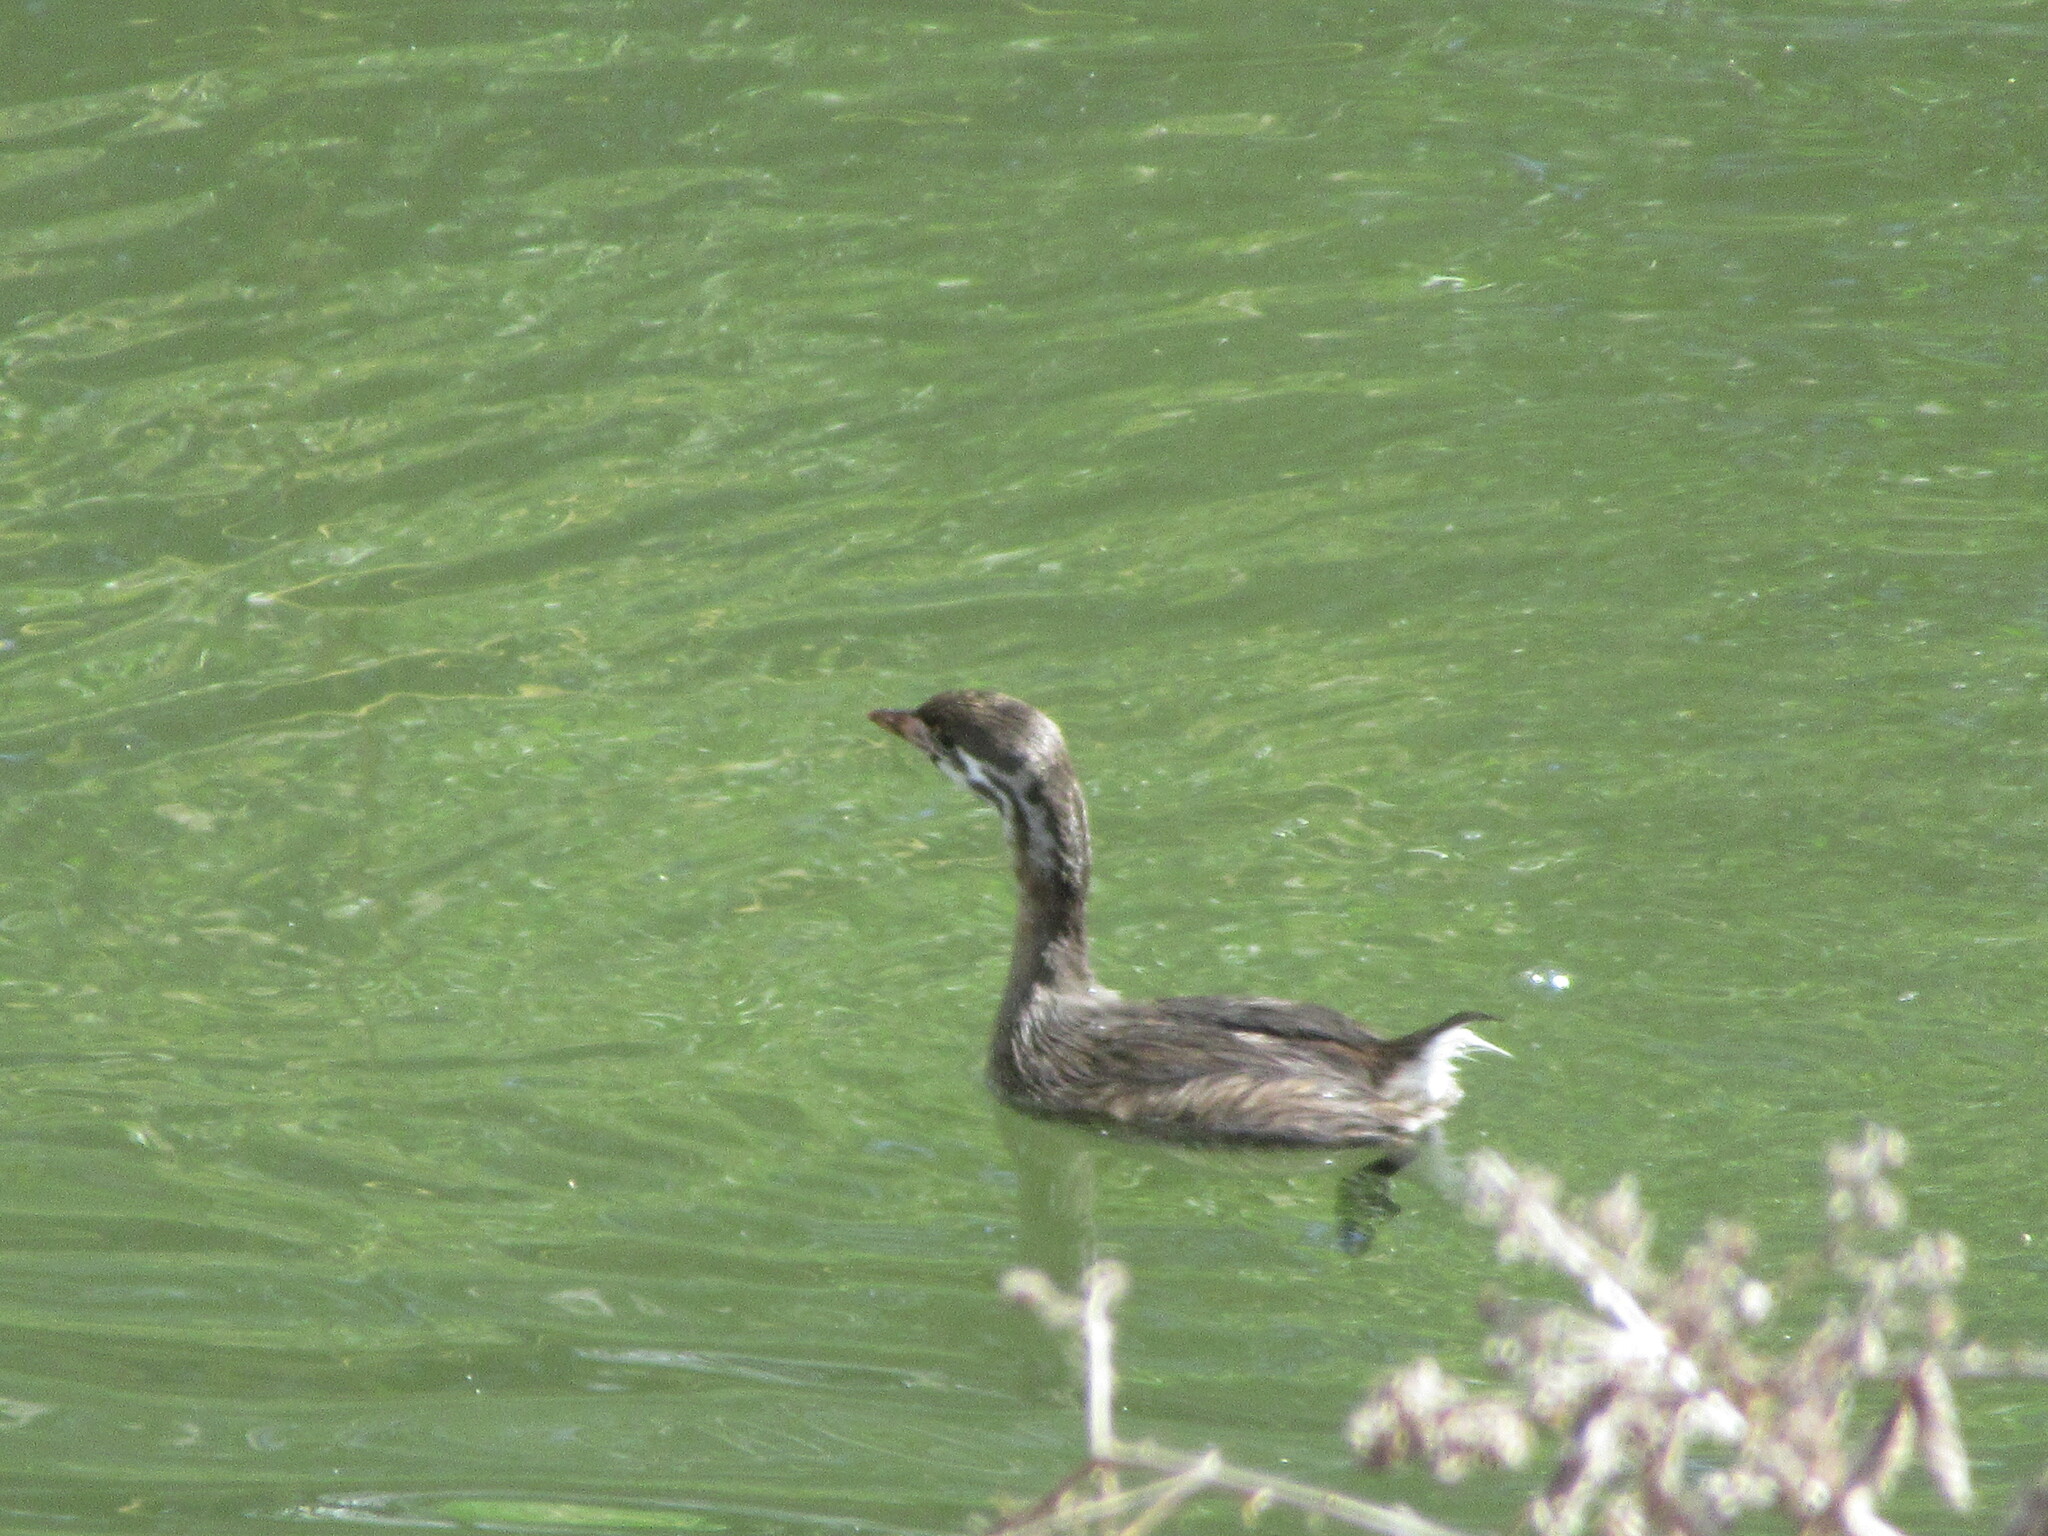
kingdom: Animalia
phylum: Chordata
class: Aves
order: Podicipediformes
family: Podicipedidae
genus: Podilymbus
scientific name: Podilymbus podiceps
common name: Pied-billed grebe
